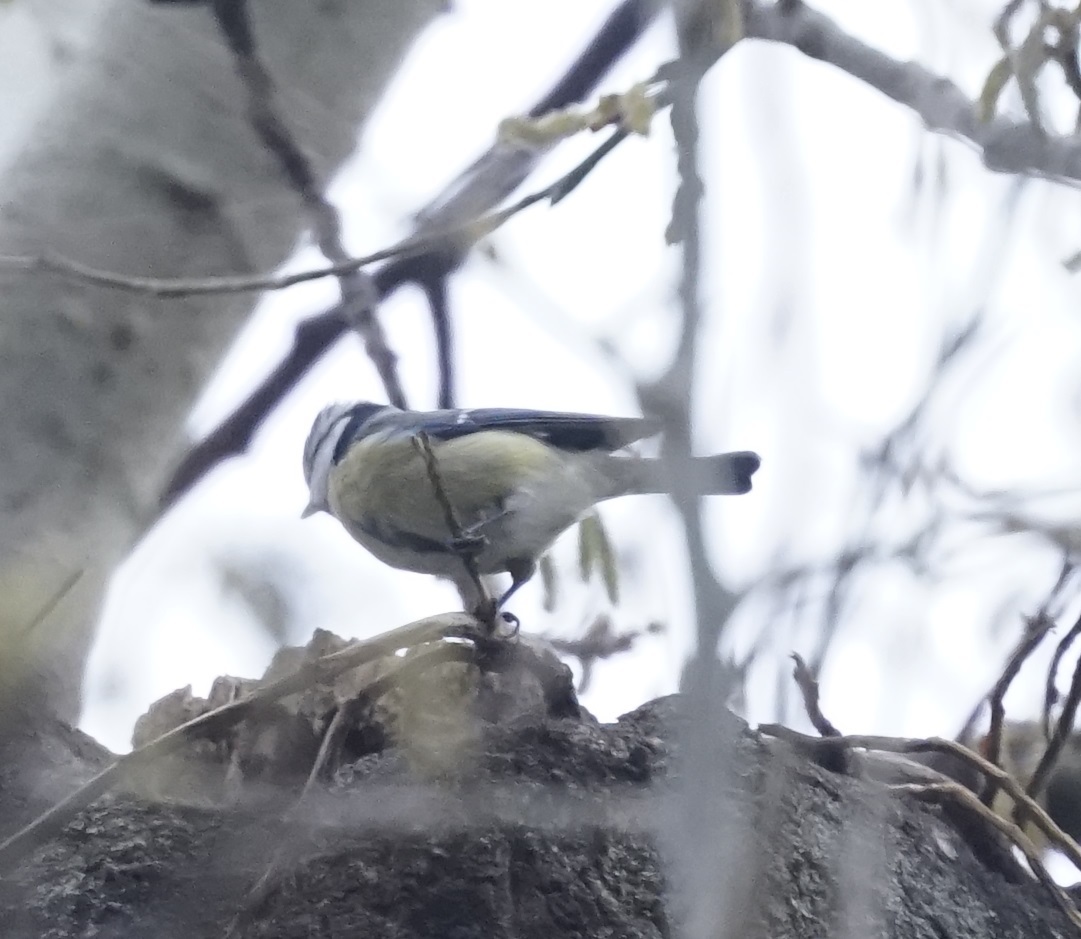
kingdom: Animalia
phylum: Chordata
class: Aves
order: Passeriformes
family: Paridae
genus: Cyanistes
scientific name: Cyanistes caeruleus
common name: Eurasian blue tit
